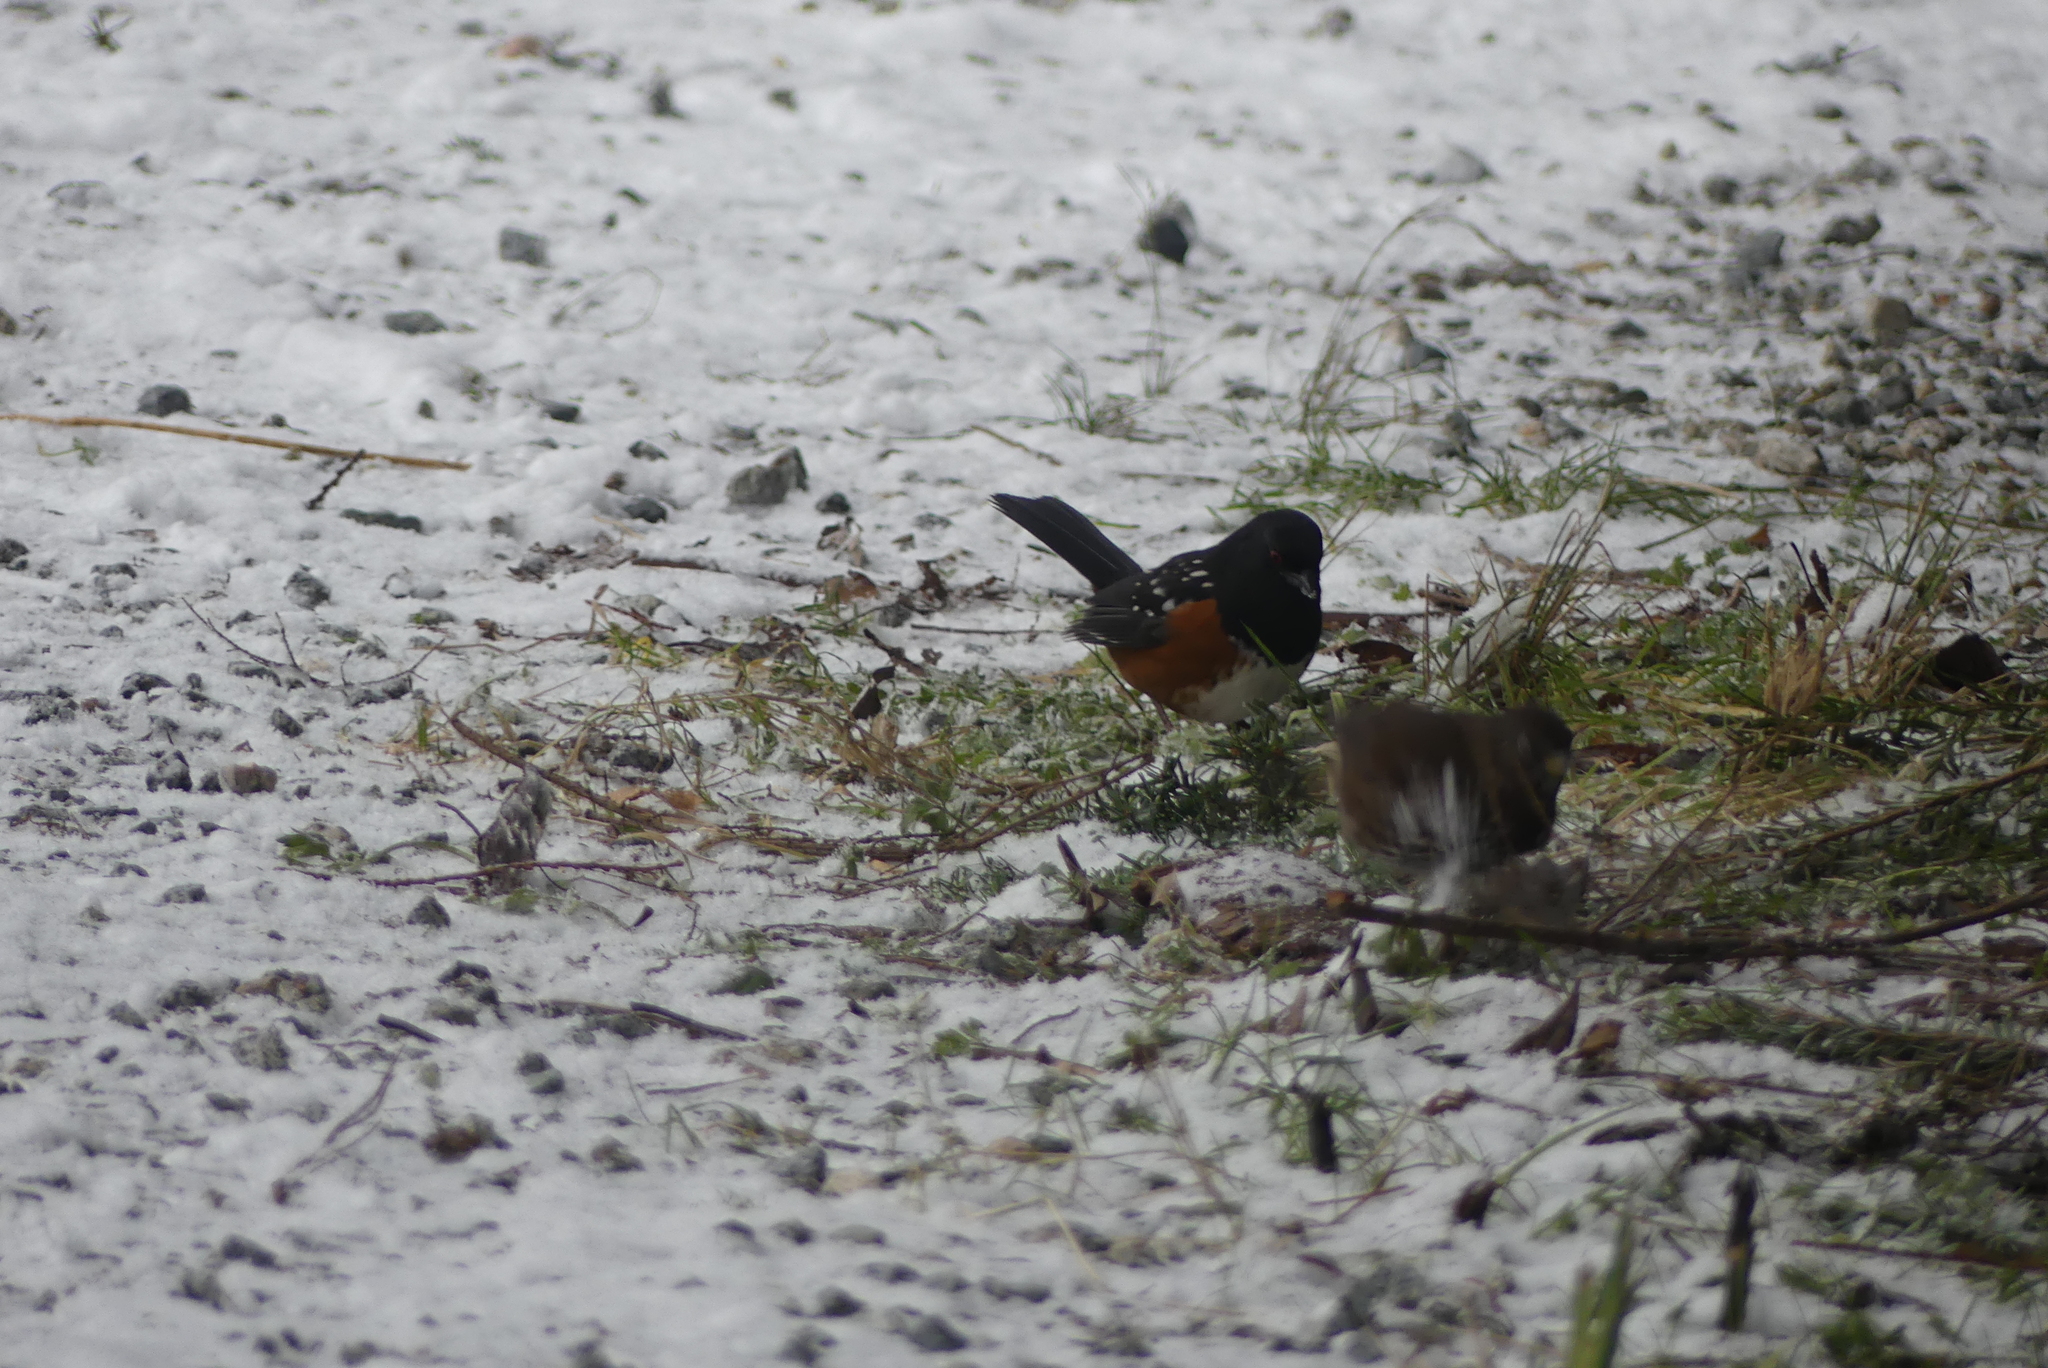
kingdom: Animalia
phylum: Chordata
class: Aves
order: Passeriformes
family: Passerellidae
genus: Pipilo
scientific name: Pipilo maculatus
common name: Spotted towhee
